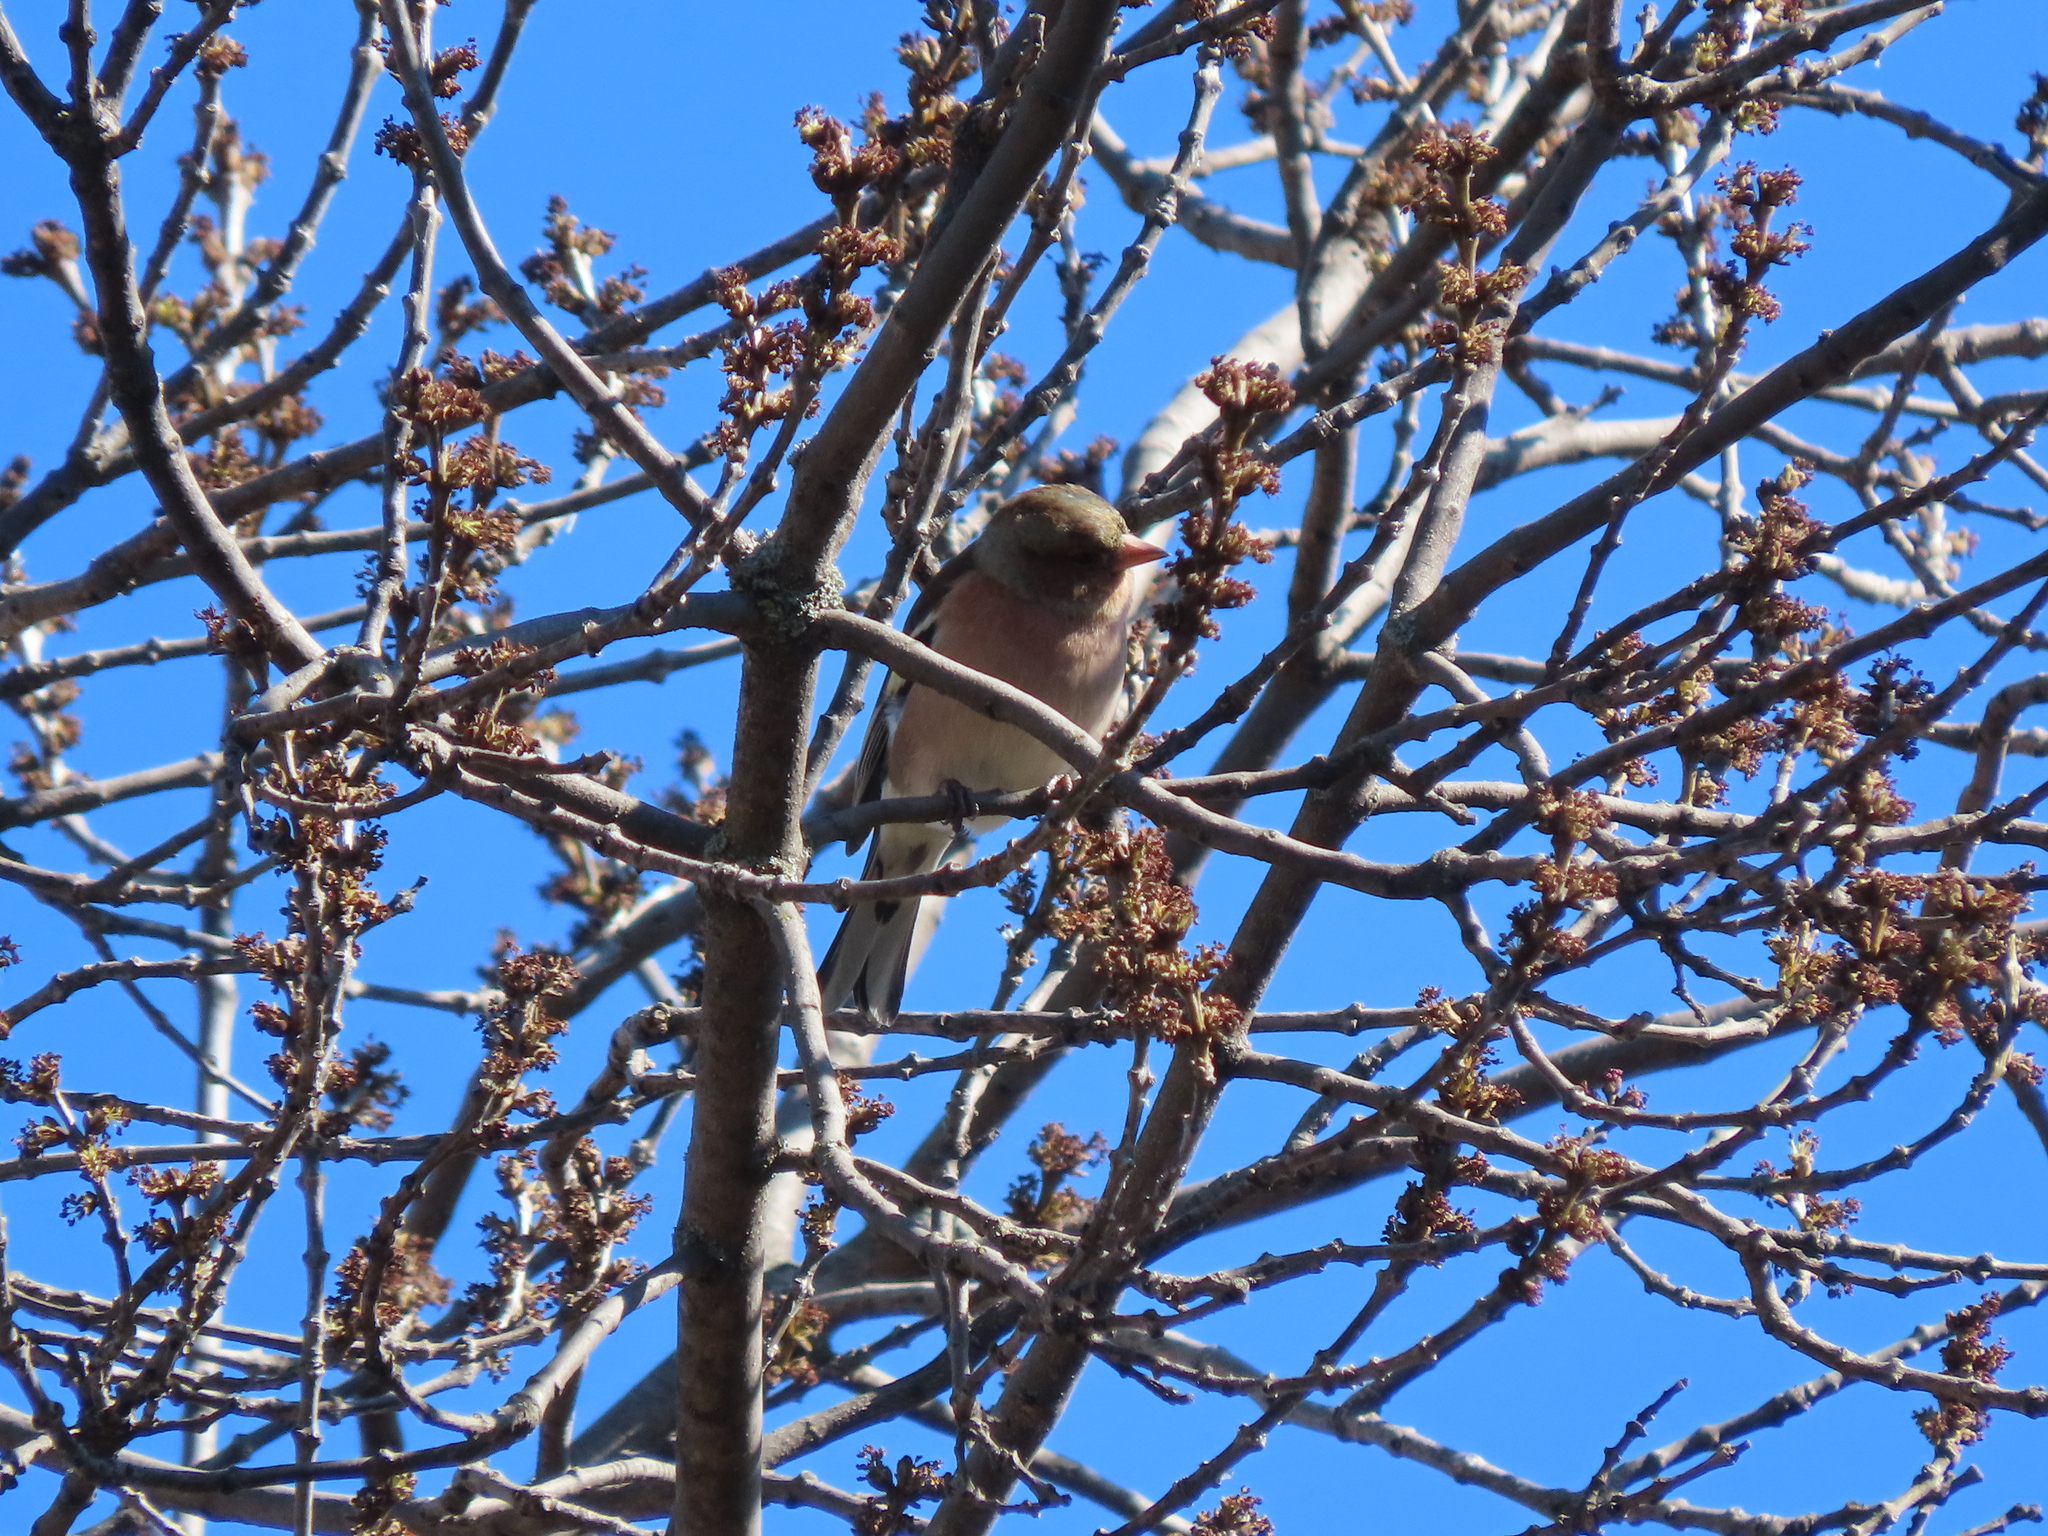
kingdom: Animalia
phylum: Chordata
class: Aves
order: Passeriformes
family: Fringillidae
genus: Fringilla
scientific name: Fringilla coelebs
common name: Common chaffinch
